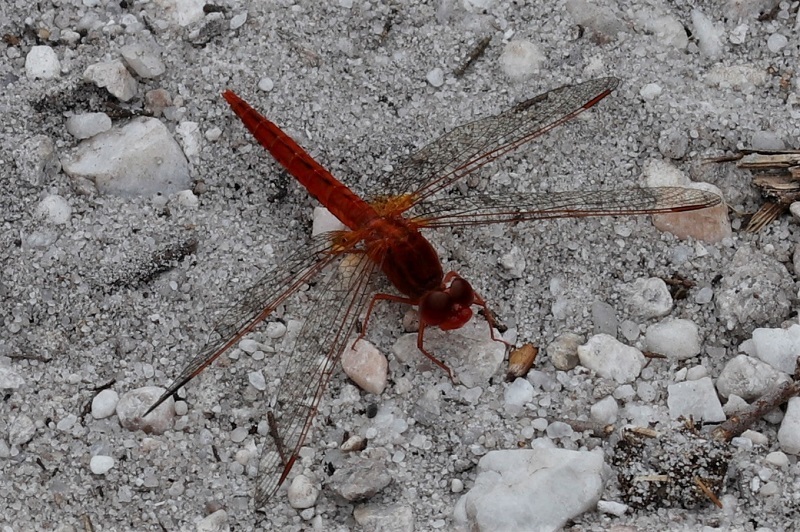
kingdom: Animalia
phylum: Arthropoda
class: Insecta
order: Odonata
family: Libellulidae
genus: Crocothemis
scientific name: Crocothemis sanguinolenta
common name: Little scarlet
